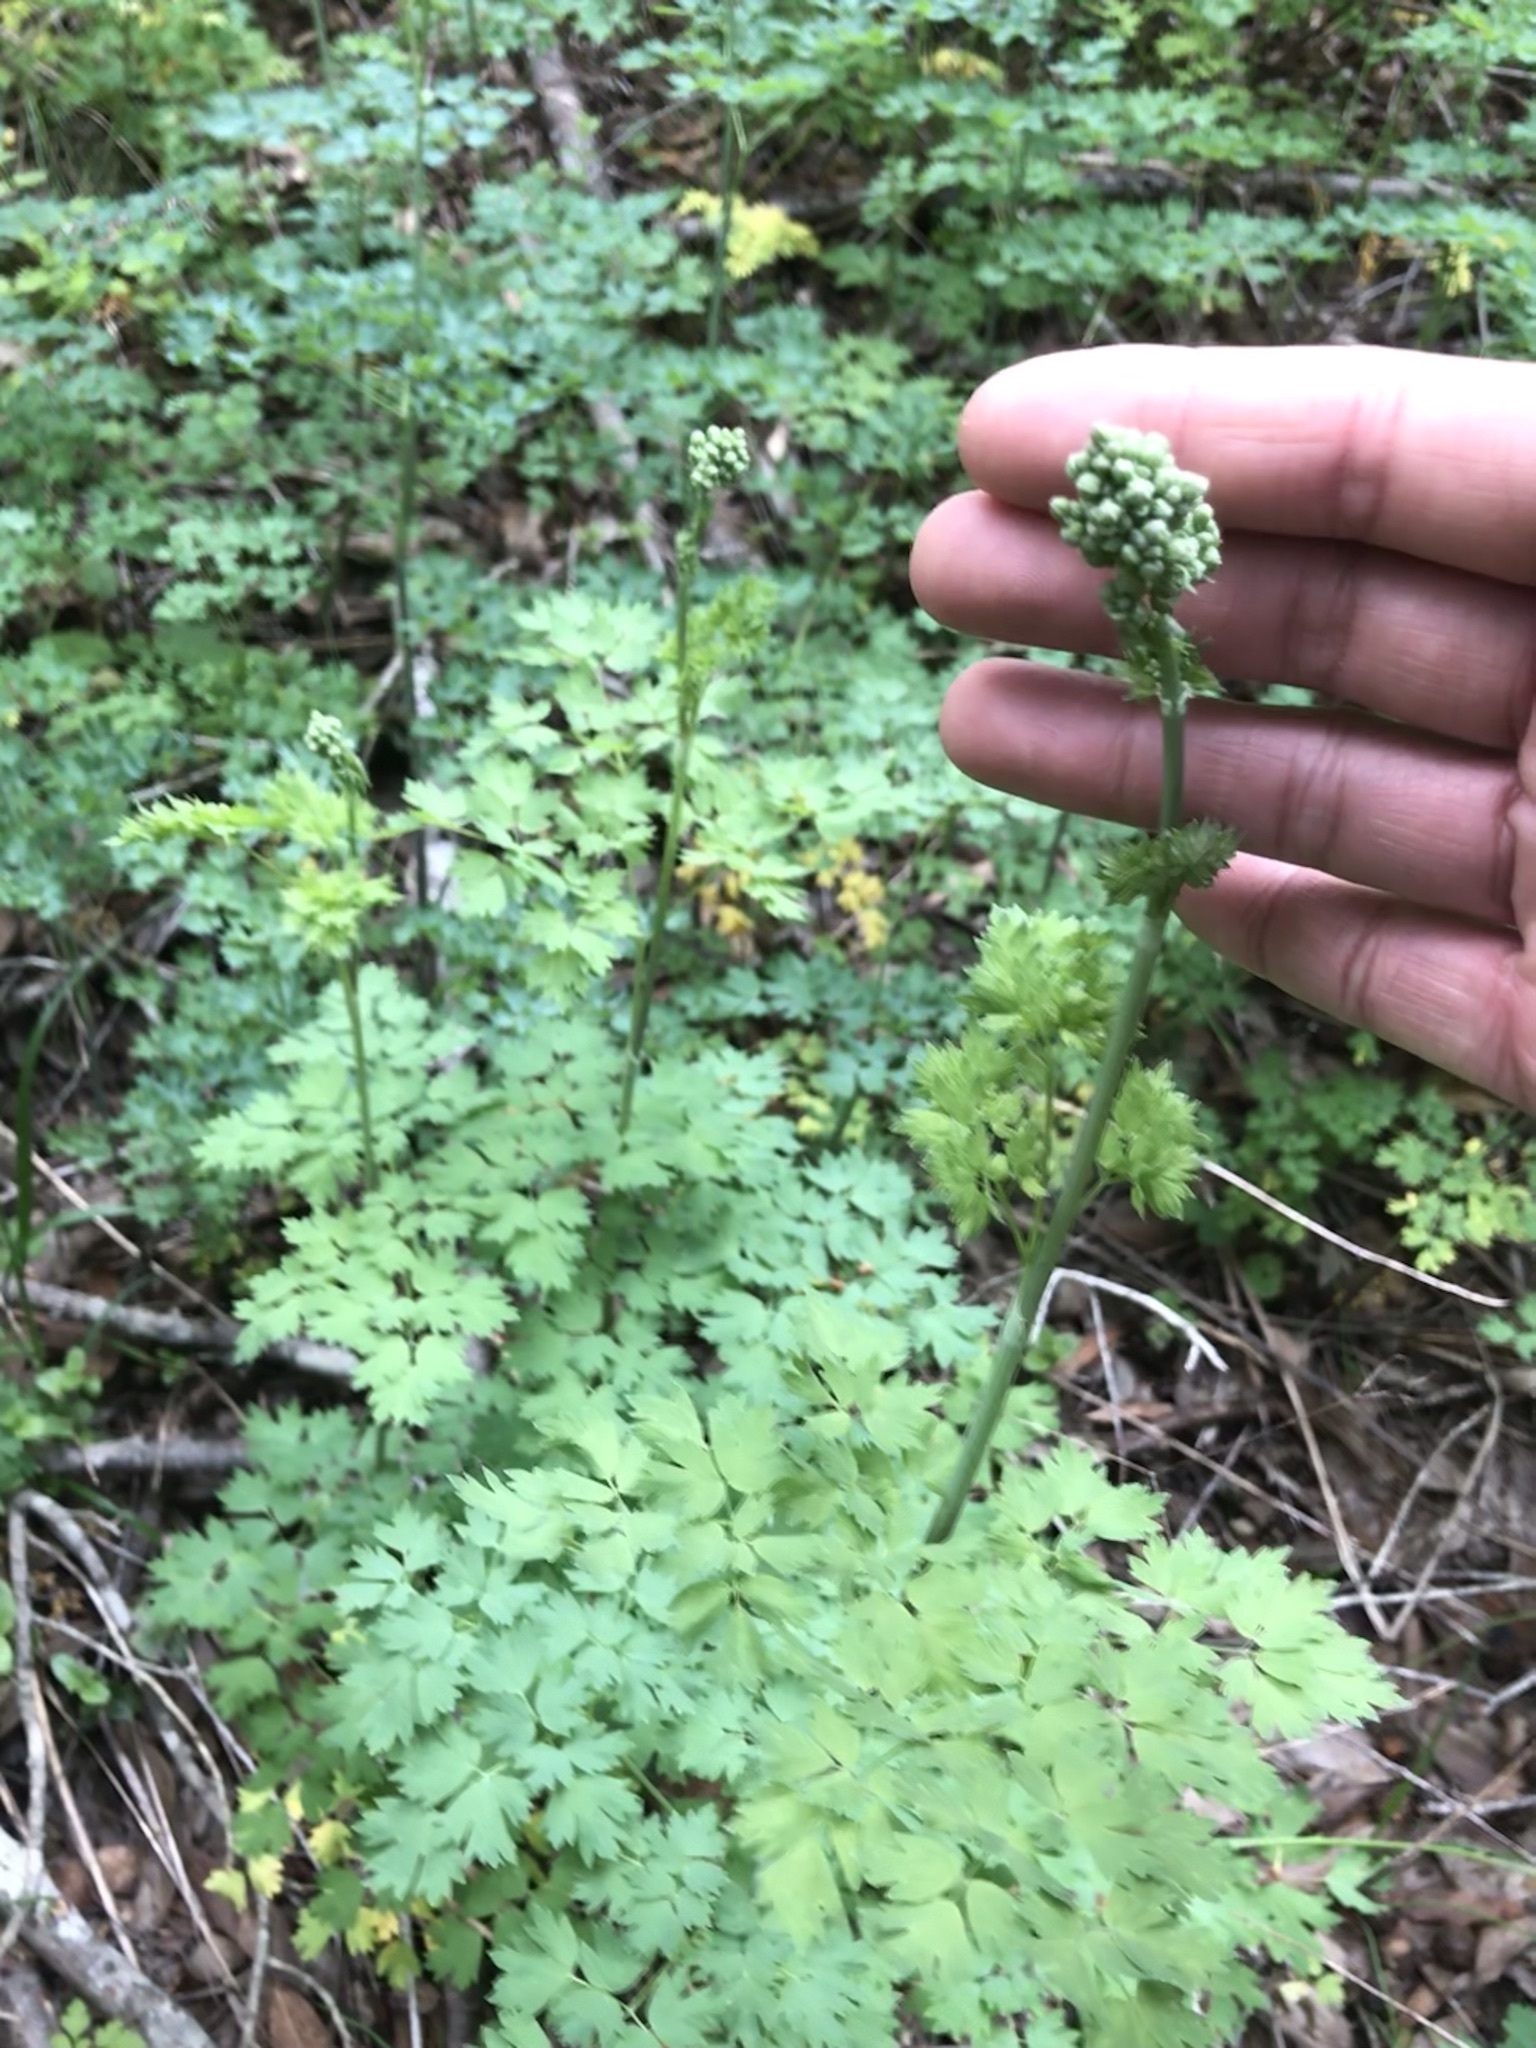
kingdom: Plantae
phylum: Tracheophyta
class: Magnoliopsida
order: Ranunculales
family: Ranunculaceae
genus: Thalictrum
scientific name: Thalictrum fendleri
